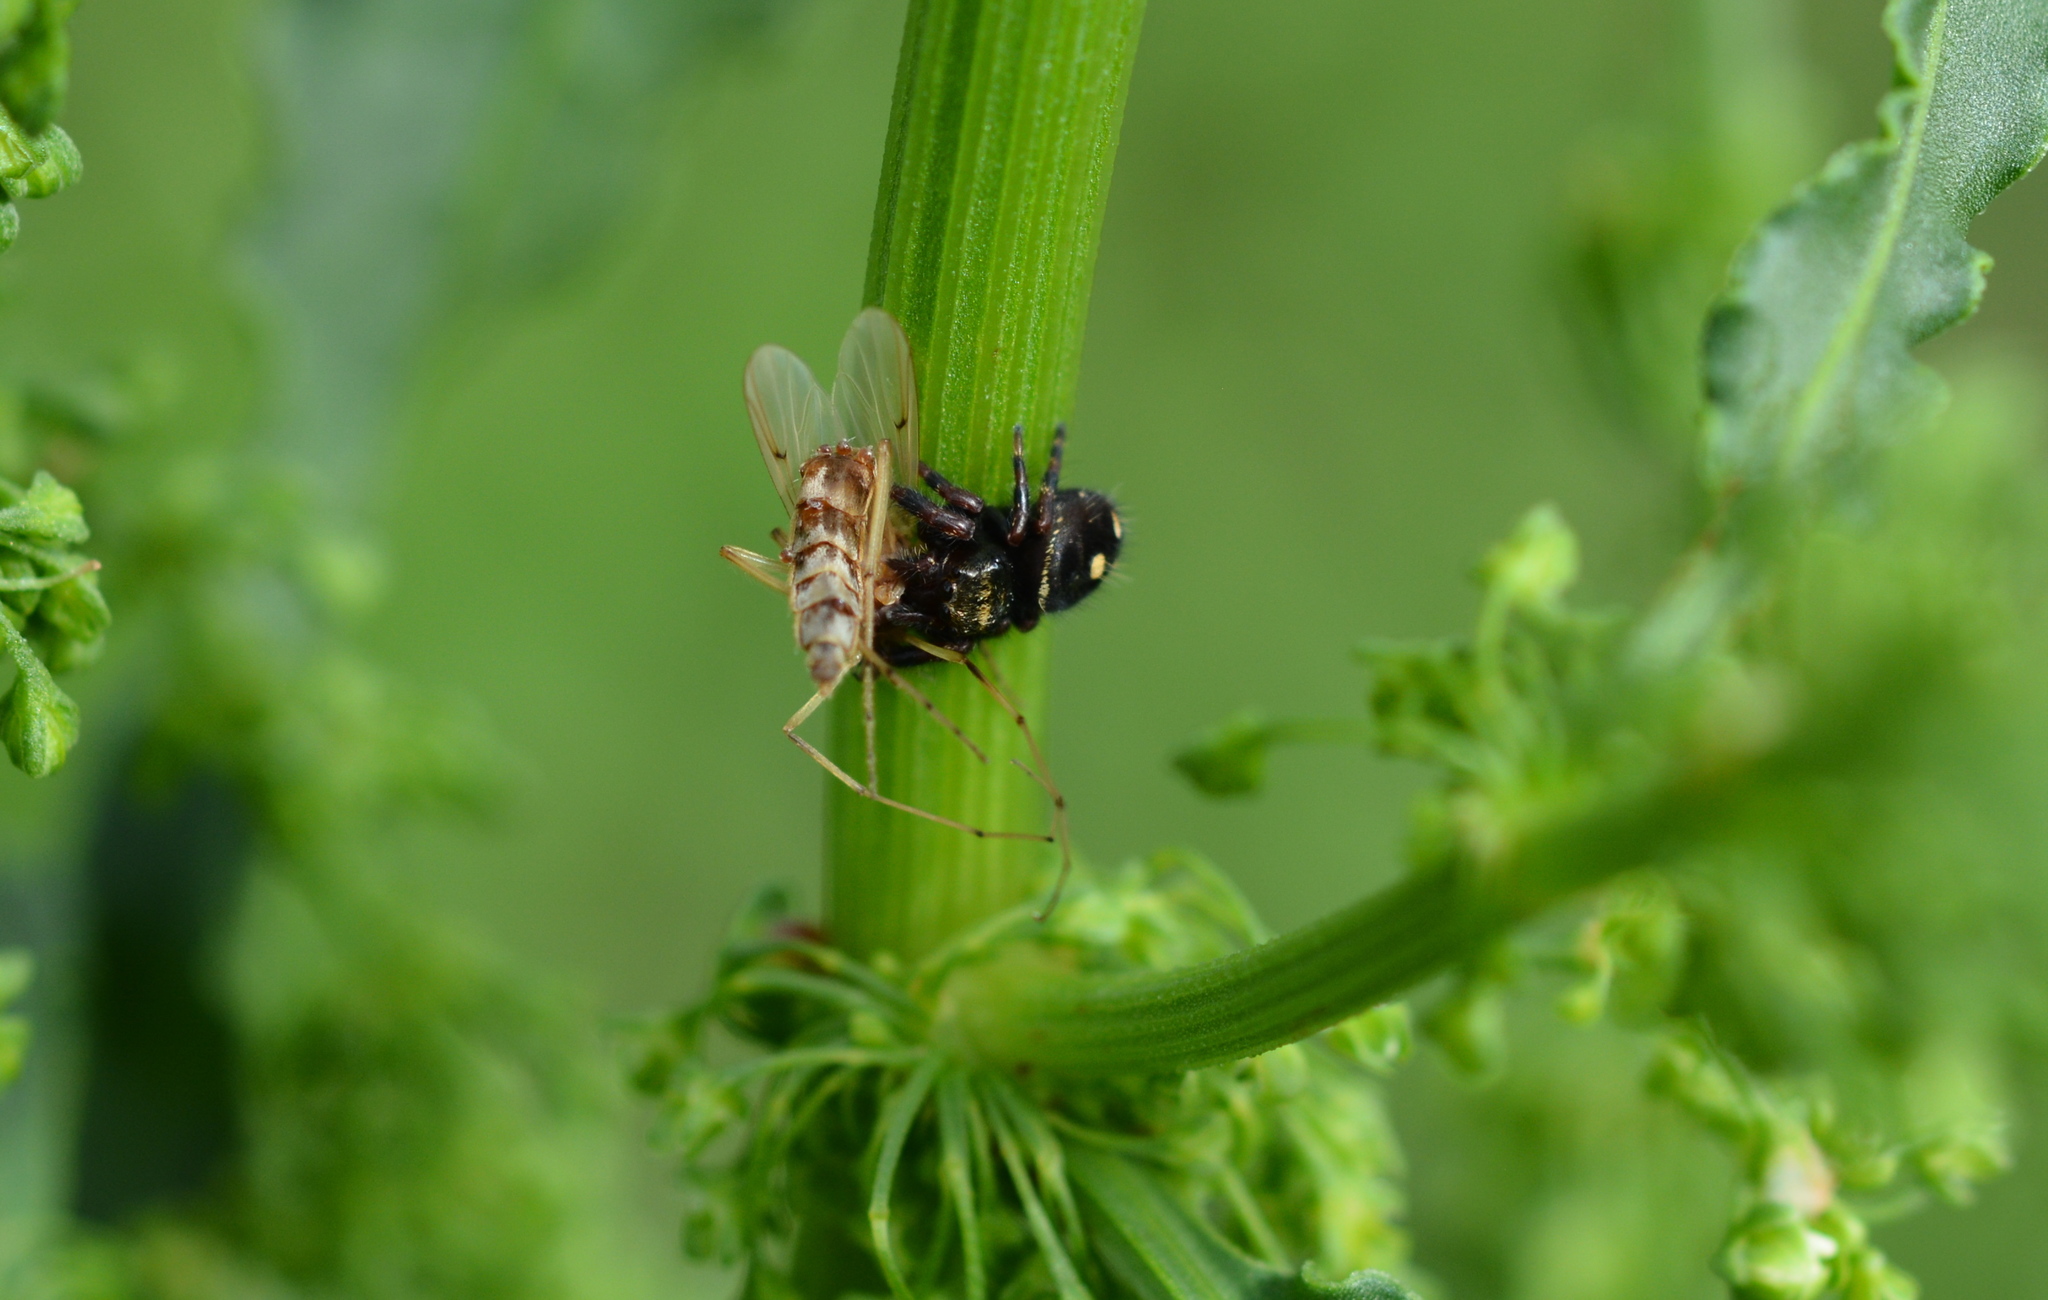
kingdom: Animalia
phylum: Arthropoda
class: Arachnida
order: Araneae
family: Salticidae
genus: Phidippus
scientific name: Phidippus audax
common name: Bold jumper
